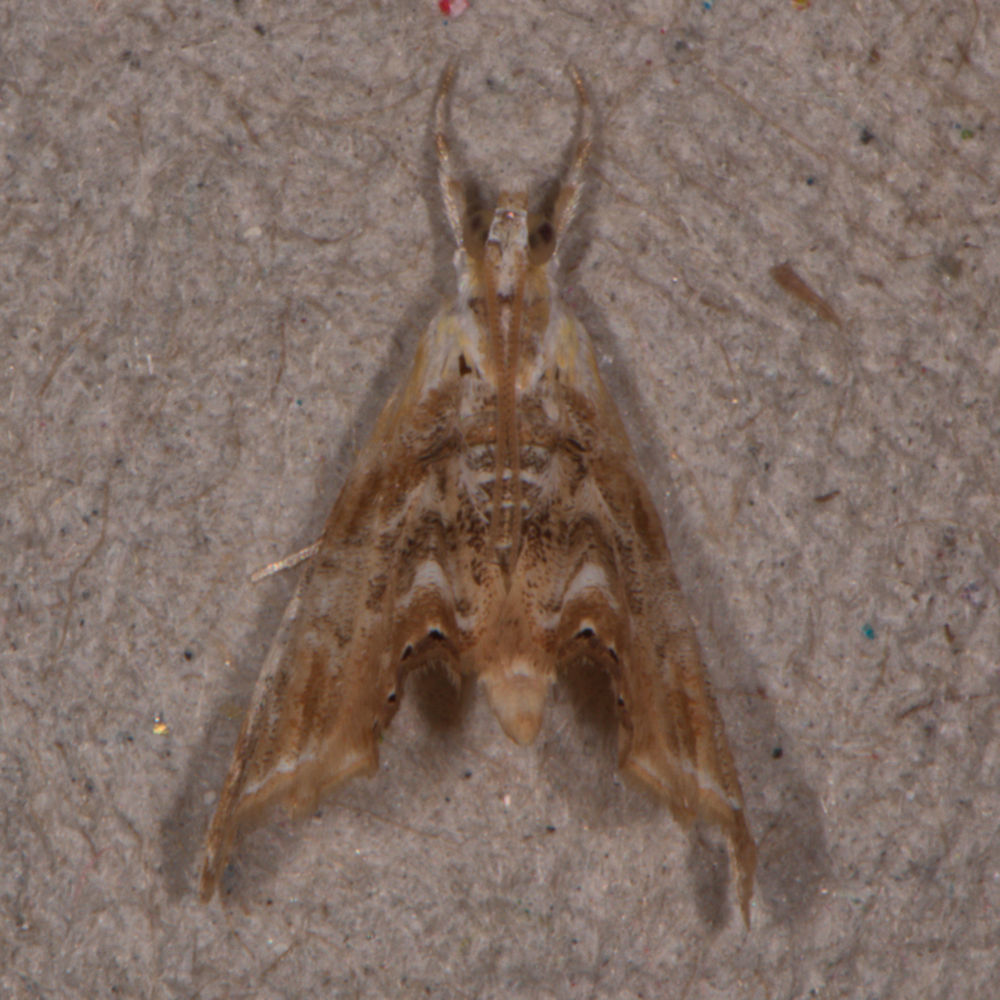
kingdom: Animalia
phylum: Arthropoda
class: Insecta
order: Lepidoptera
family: Crambidae
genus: Dicymolomia
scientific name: Dicymolomia julianalis
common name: Julia's dicymolomia moth
